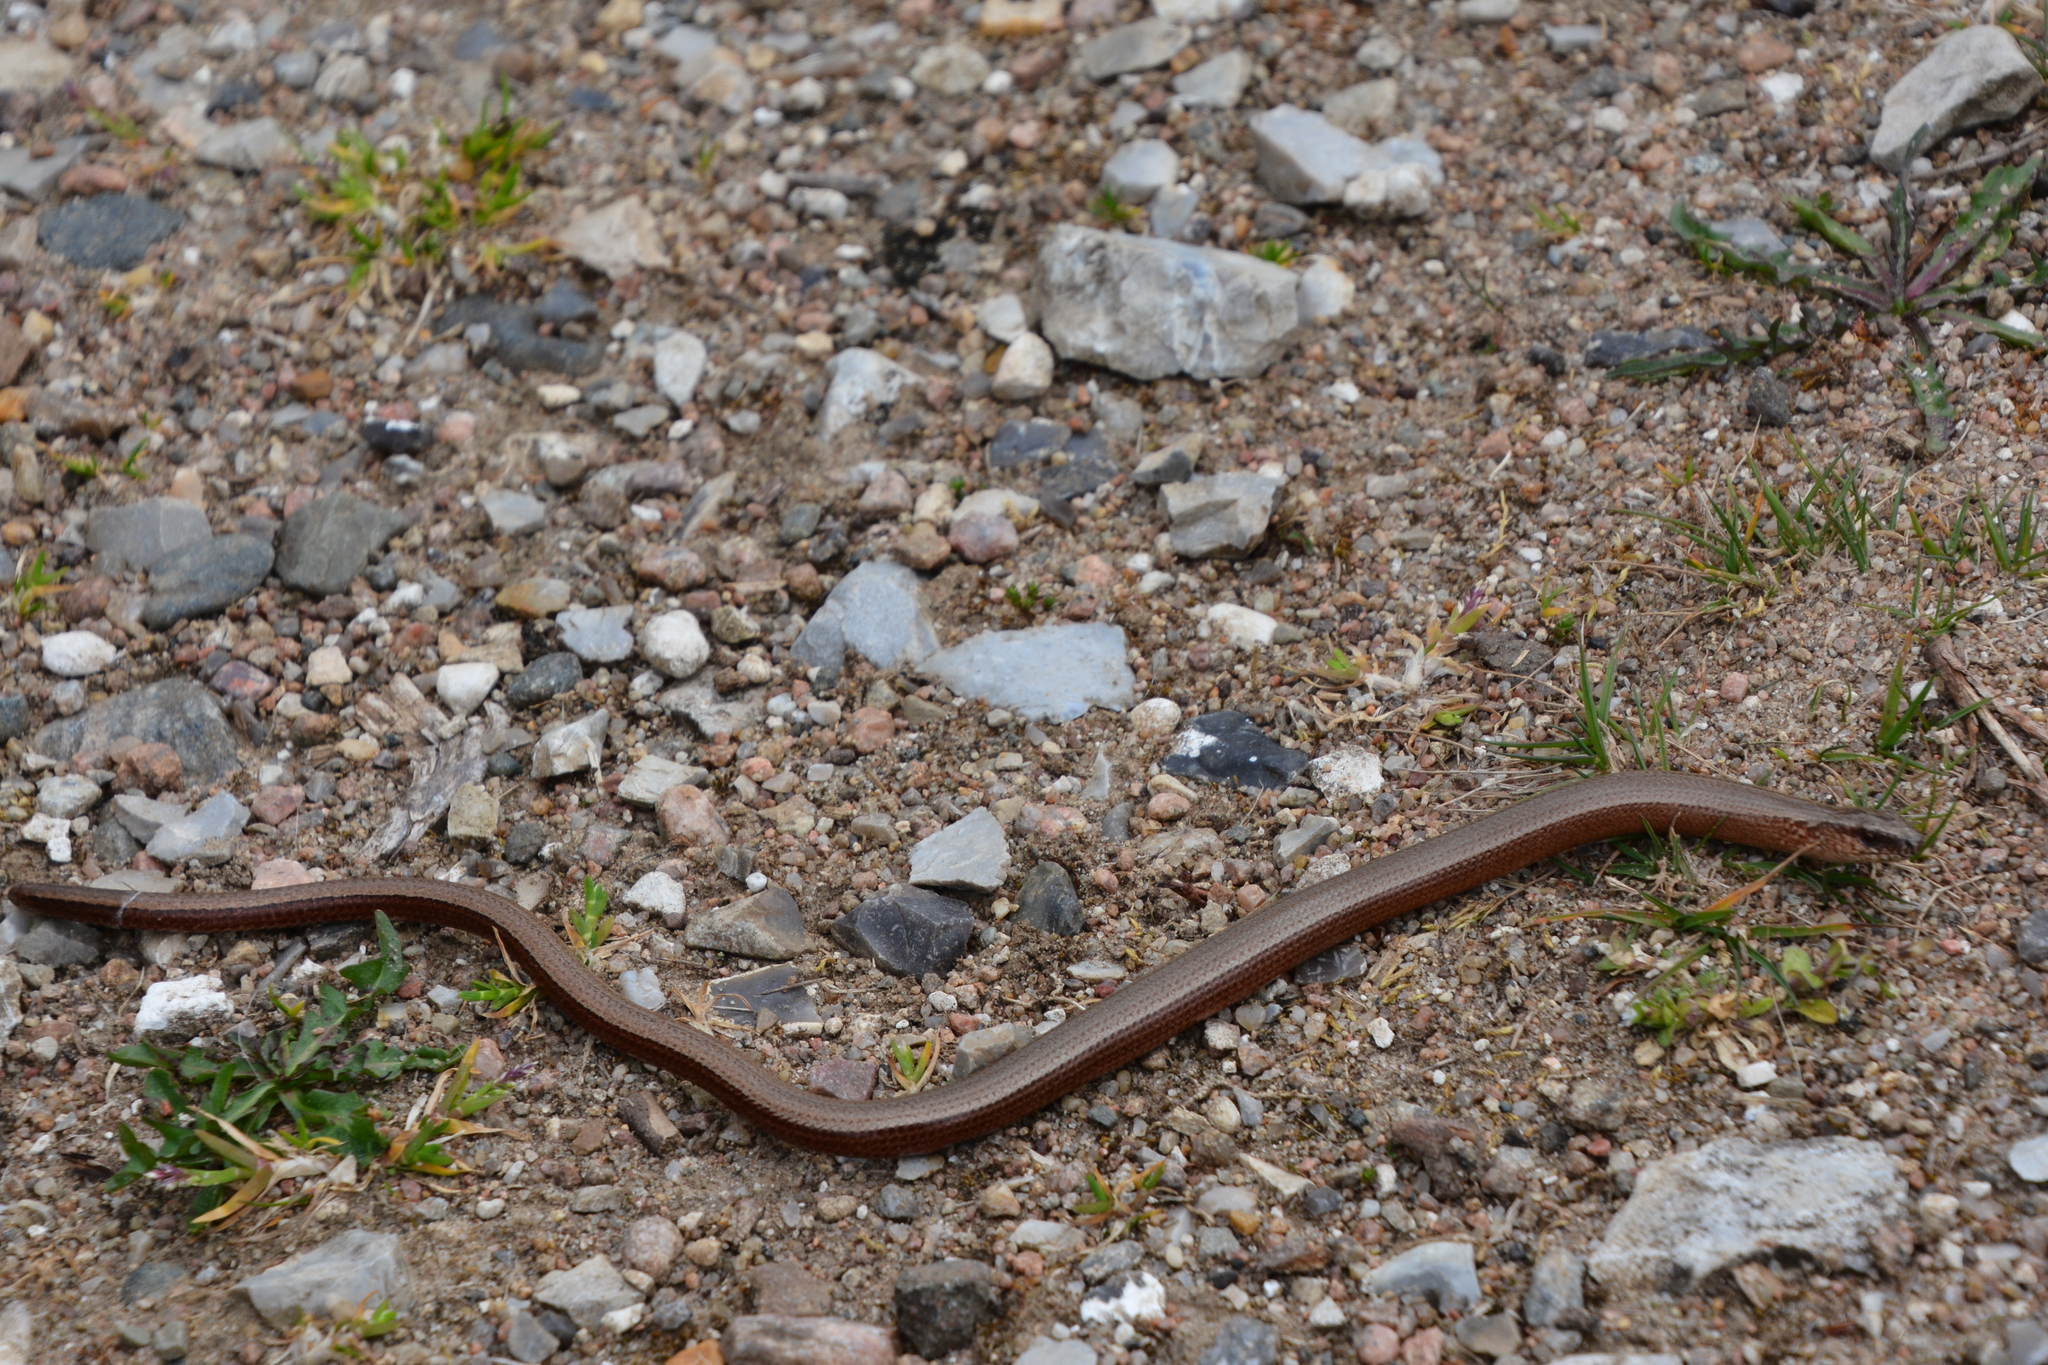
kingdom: Animalia
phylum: Chordata
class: Squamata
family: Anguidae
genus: Anguis
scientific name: Anguis fragilis
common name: Slow worm
